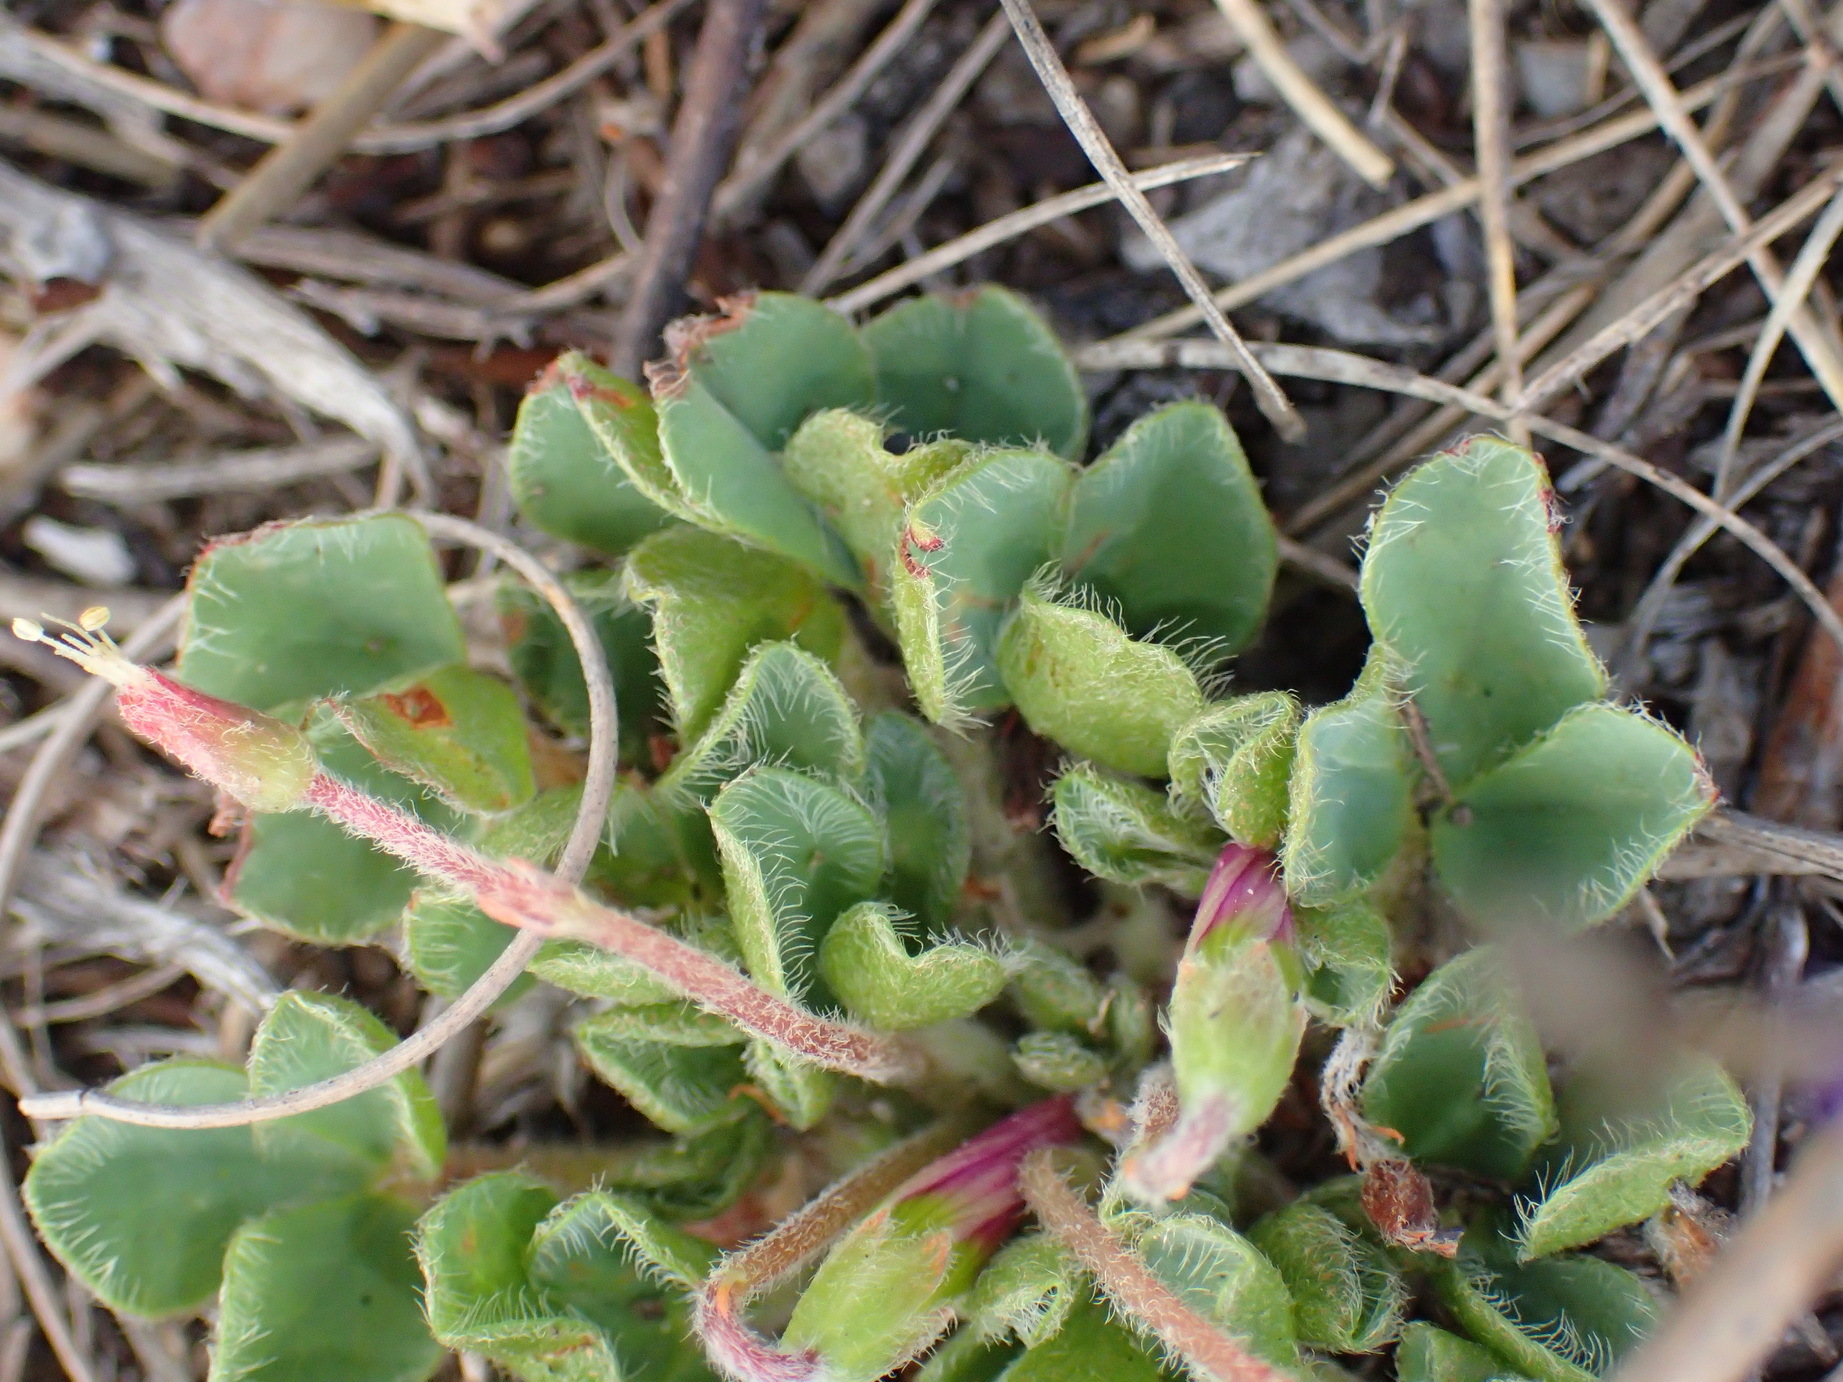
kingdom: Plantae
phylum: Tracheophyta
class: Magnoliopsida
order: Oxalidales
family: Oxalidaceae
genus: Oxalis
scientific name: Oxalis imbricata
